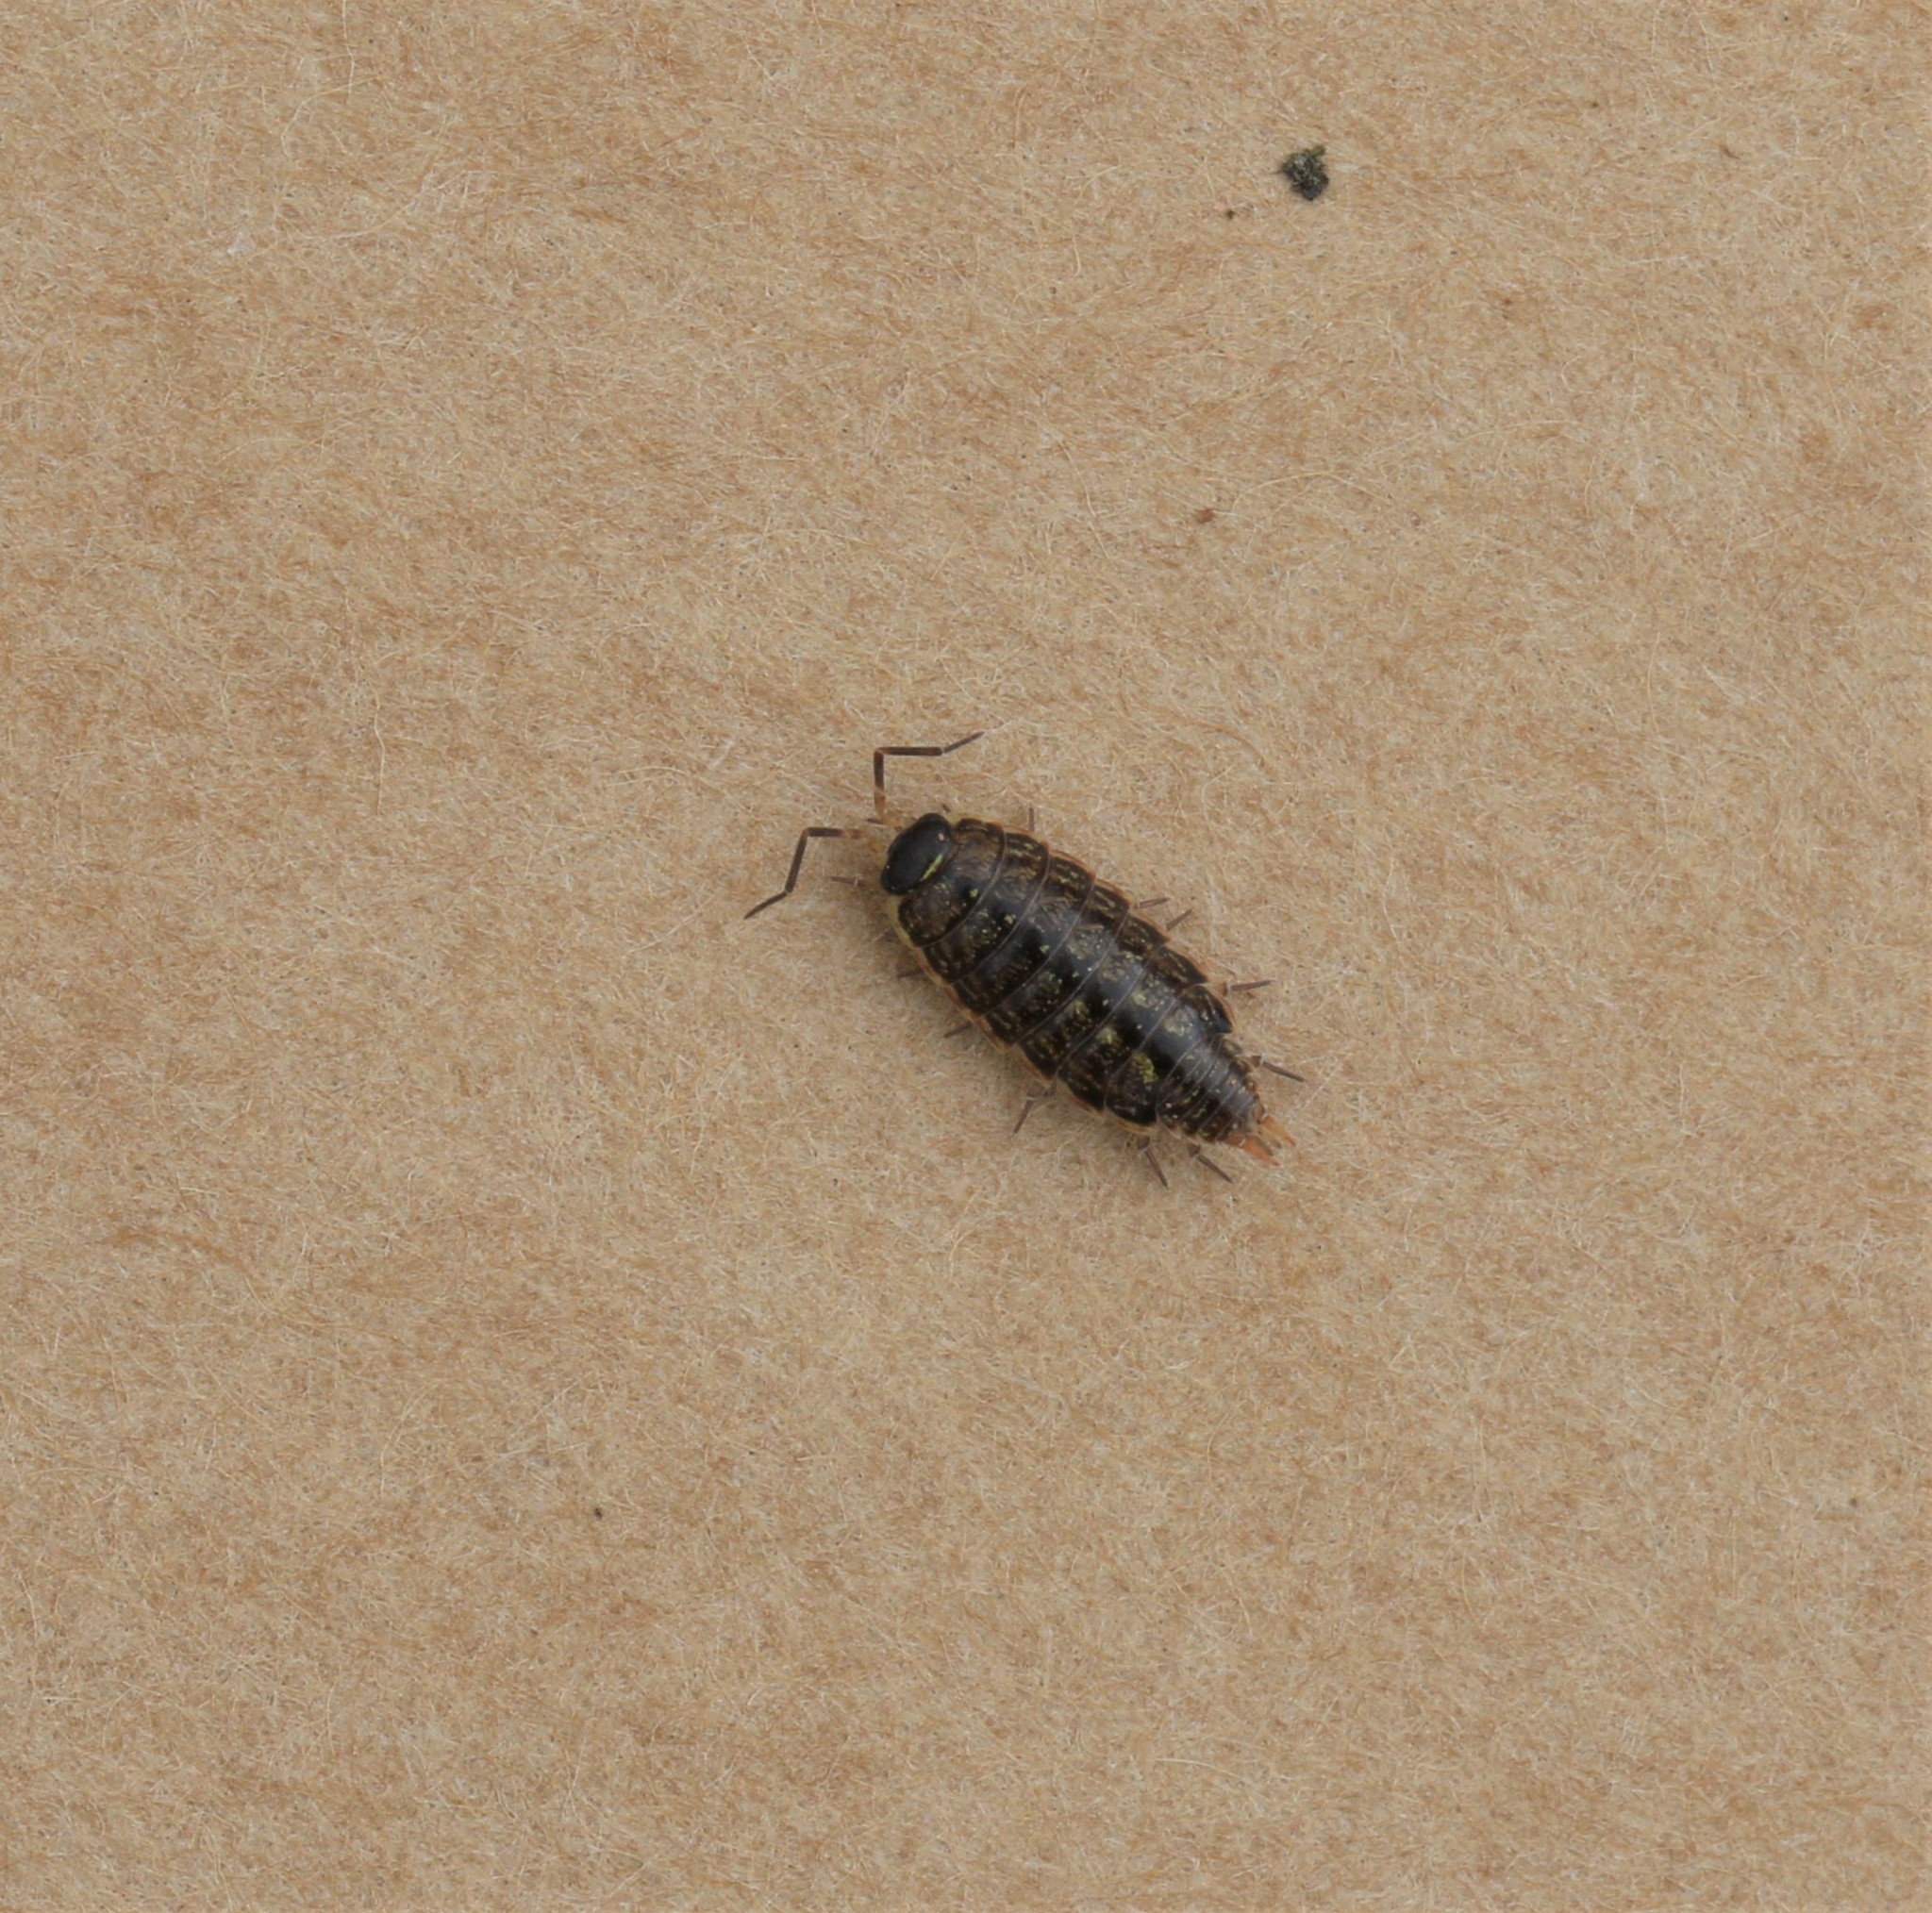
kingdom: Animalia
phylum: Arthropoda
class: Malacostraca
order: Isopoda
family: Philosciidae
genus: Philoscia
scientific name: Philoscia muscorum
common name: Common striped woodlouse
